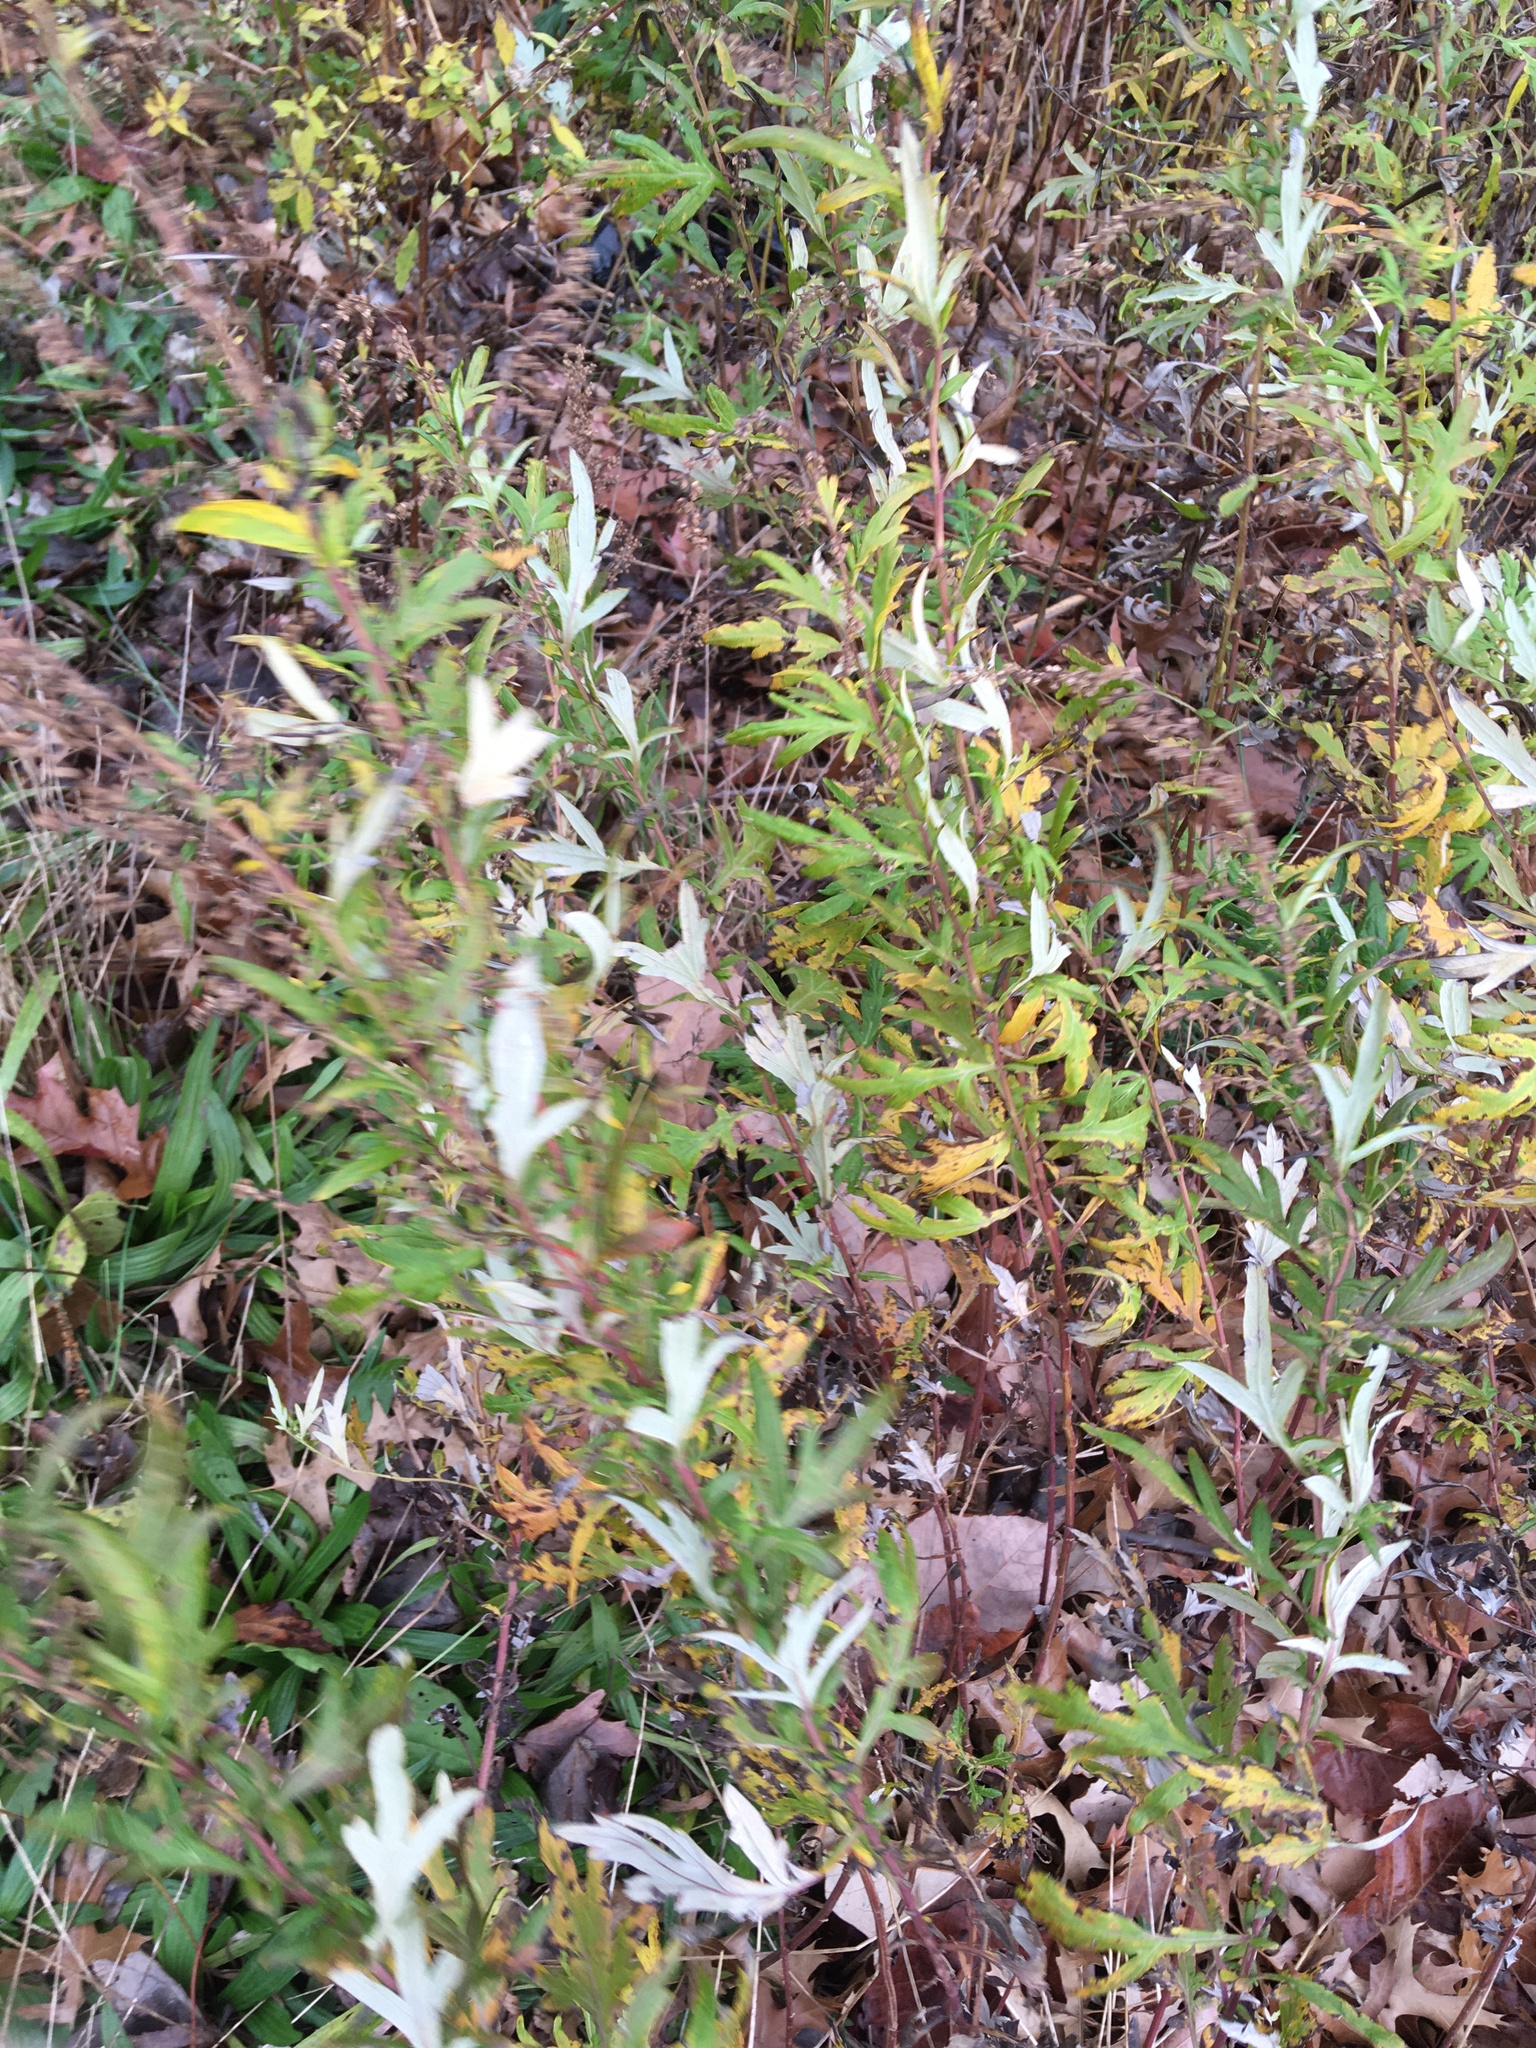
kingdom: Plantae
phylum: Tracheophyta
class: Magnoliopsida
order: Asterales
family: Asteraceae
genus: Artemisia
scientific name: Artemisia vulgaris
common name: Mugwort
